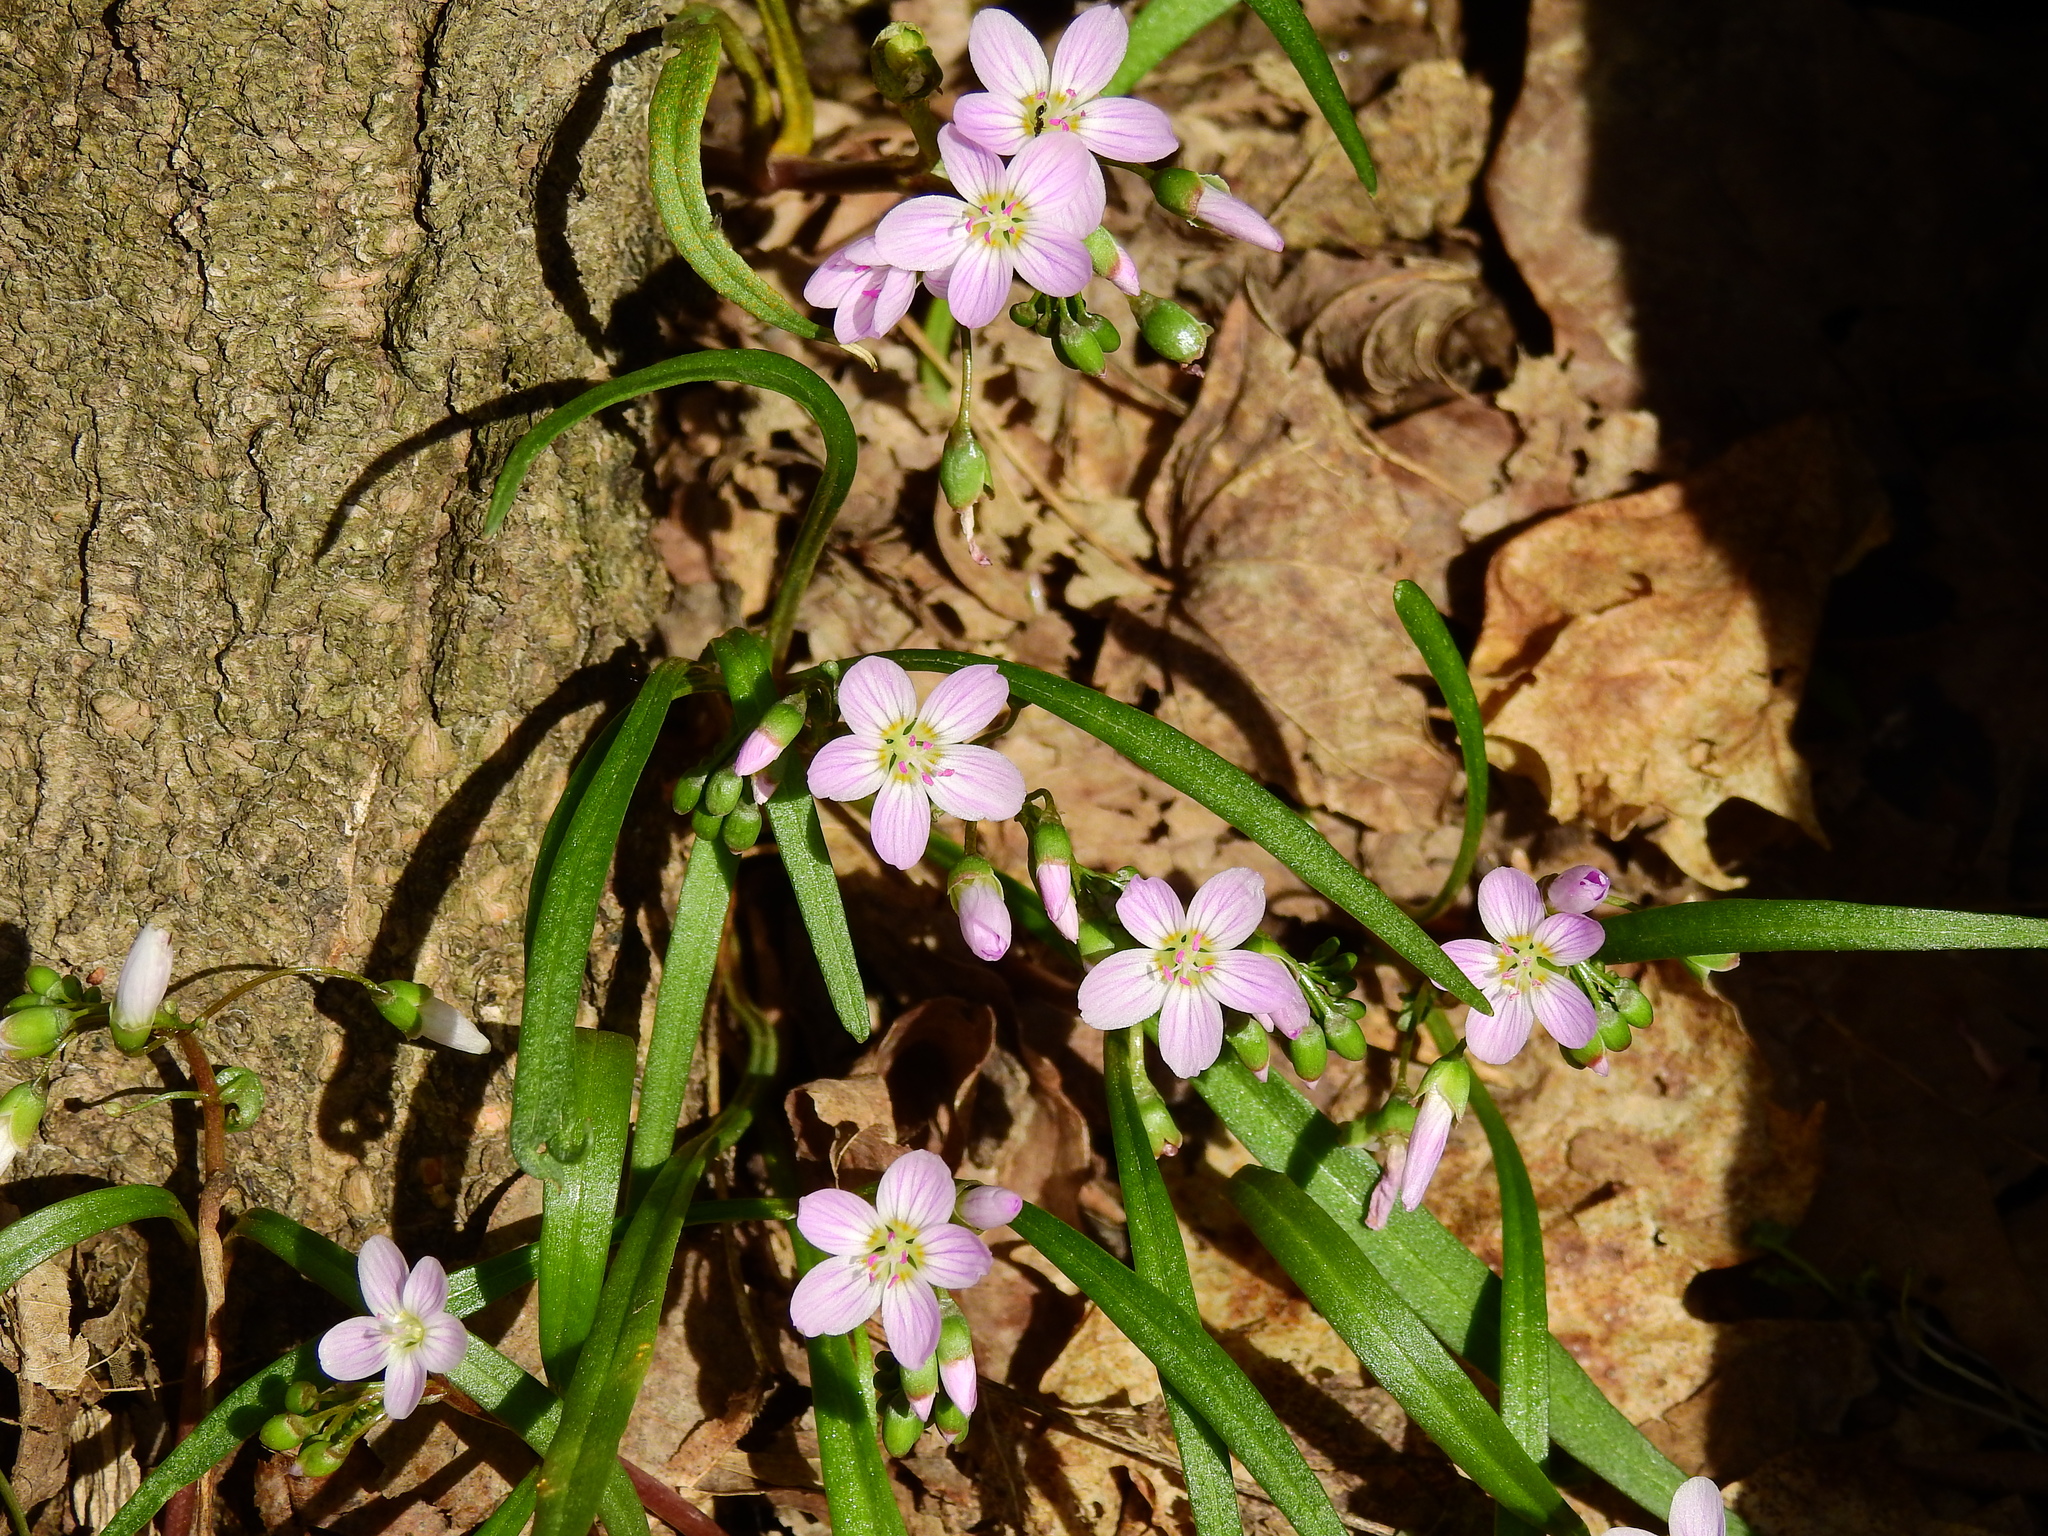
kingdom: Plantae
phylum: Tracheophyta
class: Magnoliopsida
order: Caryophyllales
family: Montiaceae
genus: Claytonia
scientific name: Claytonia virginica
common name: Virginia springbeauty
